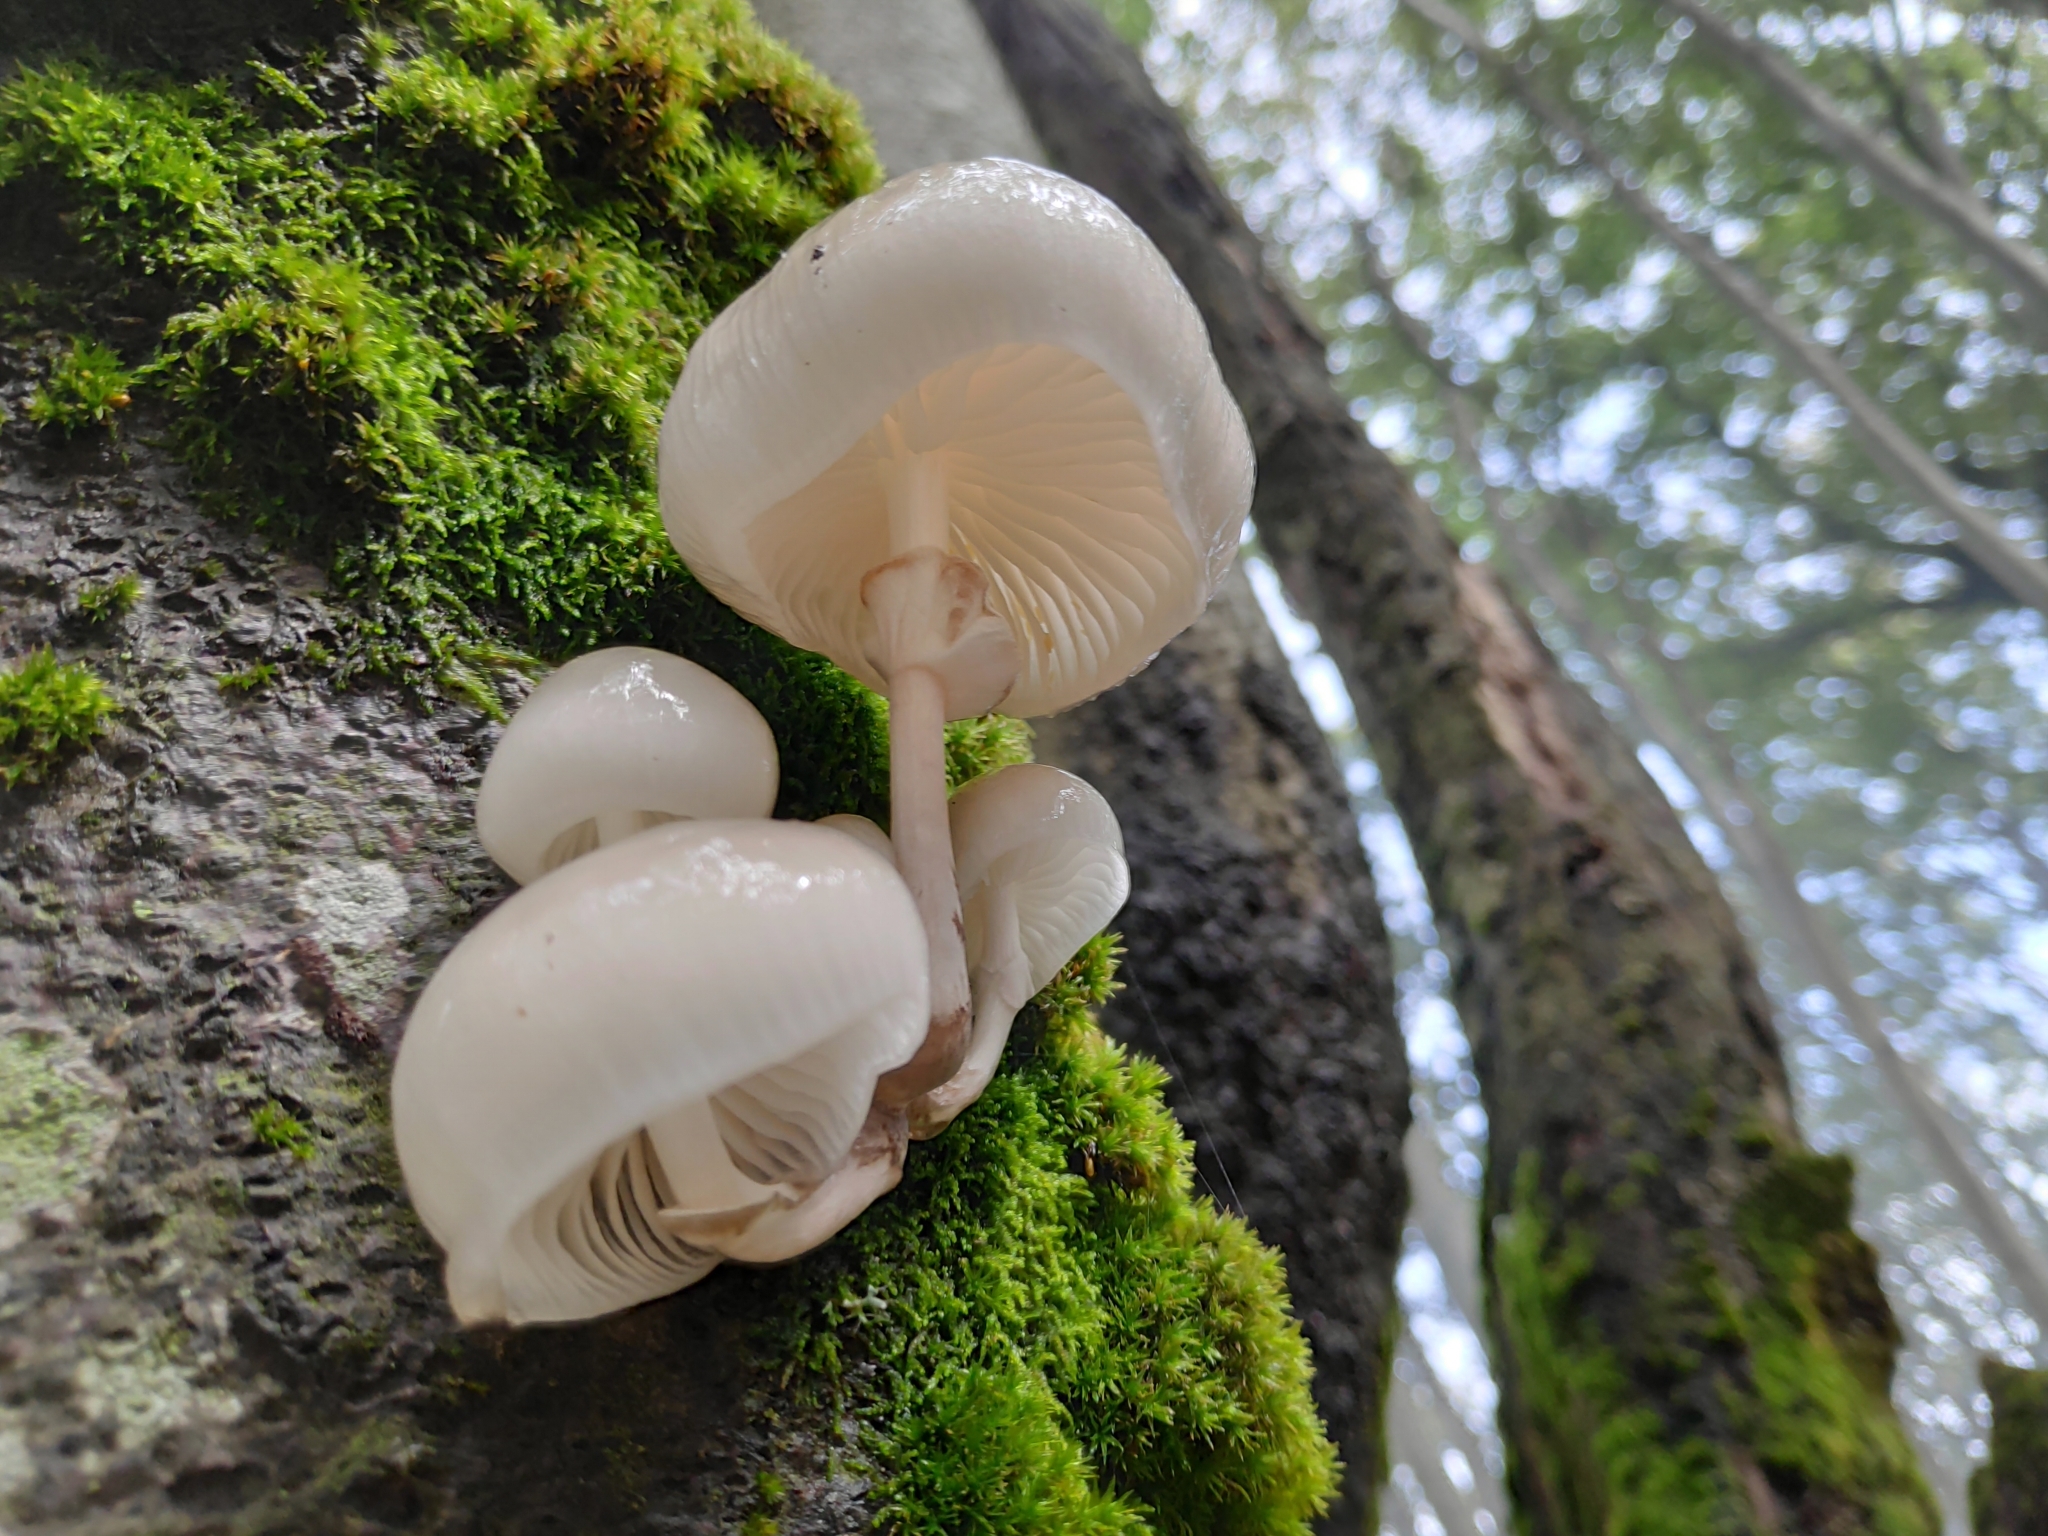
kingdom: Fungi
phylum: Basidiomycota
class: Agaricomycetes
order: Agaricales
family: Physalacriaceae
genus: Mucidula
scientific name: Mucidula mucida
